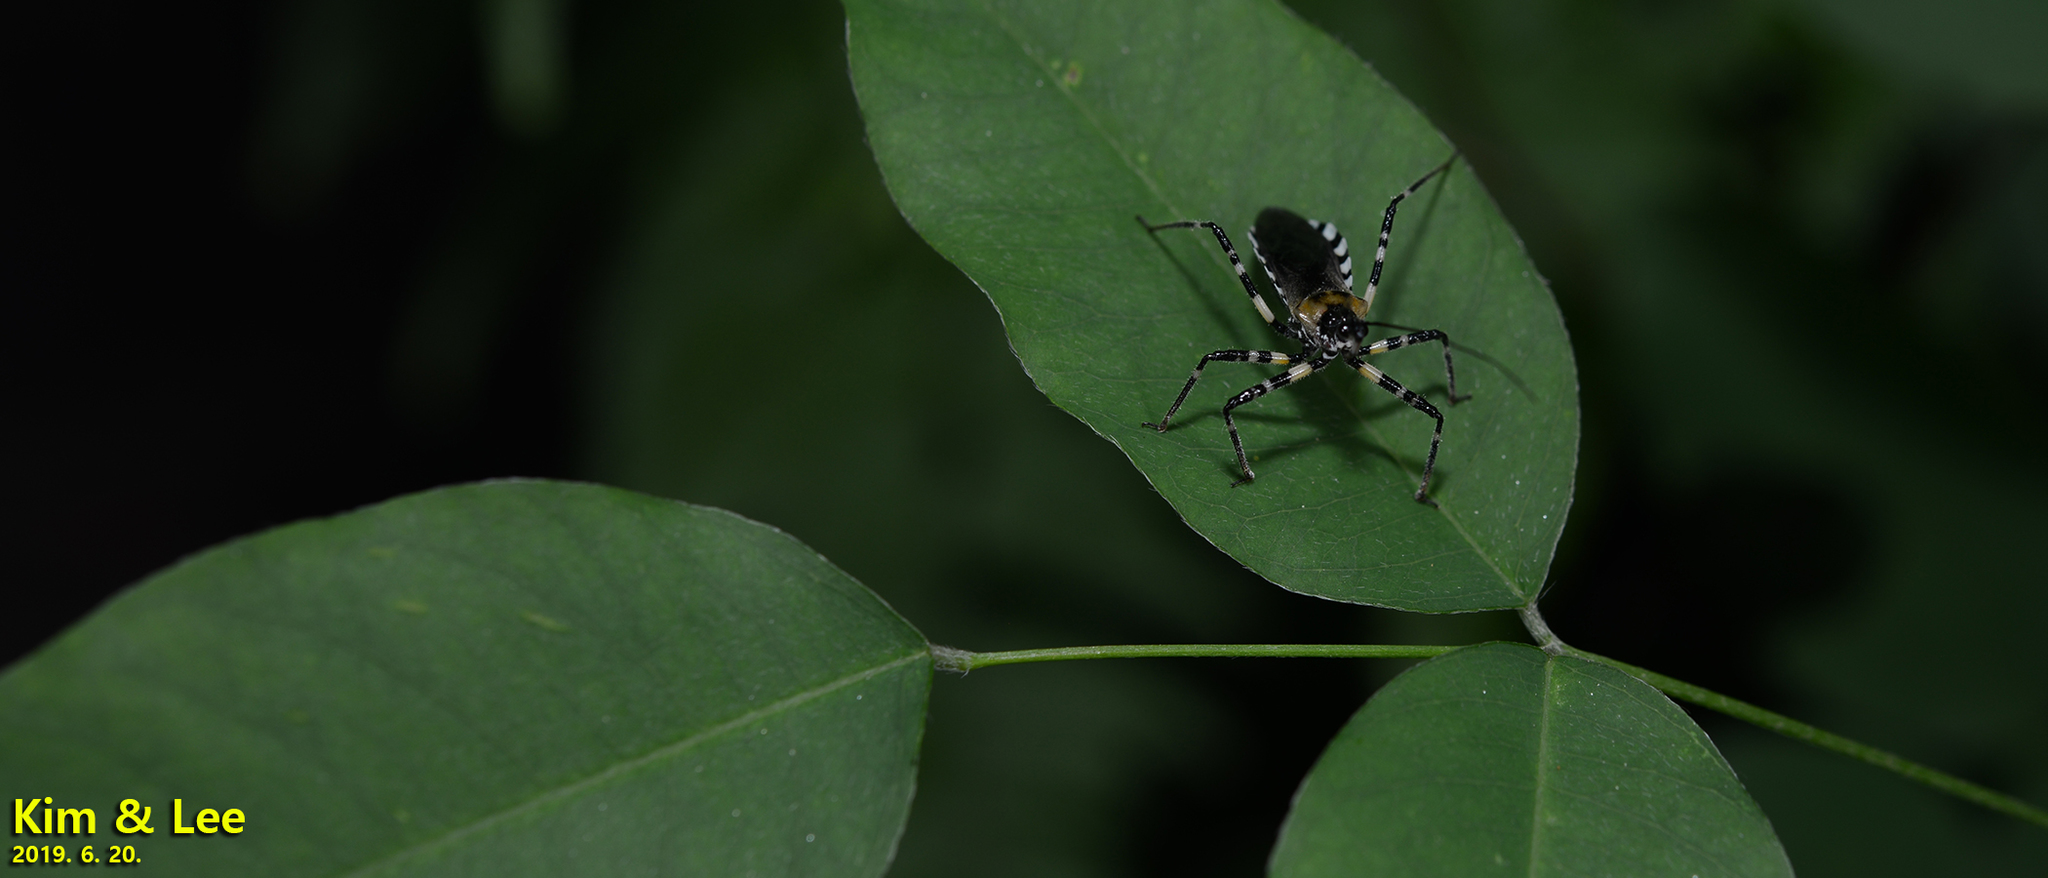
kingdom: Animalia
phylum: Arthropoda
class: Insecta
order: Hemiptera
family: Reduviidae
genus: Sphedanolestes
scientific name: Sphedanolestes impressicollis
